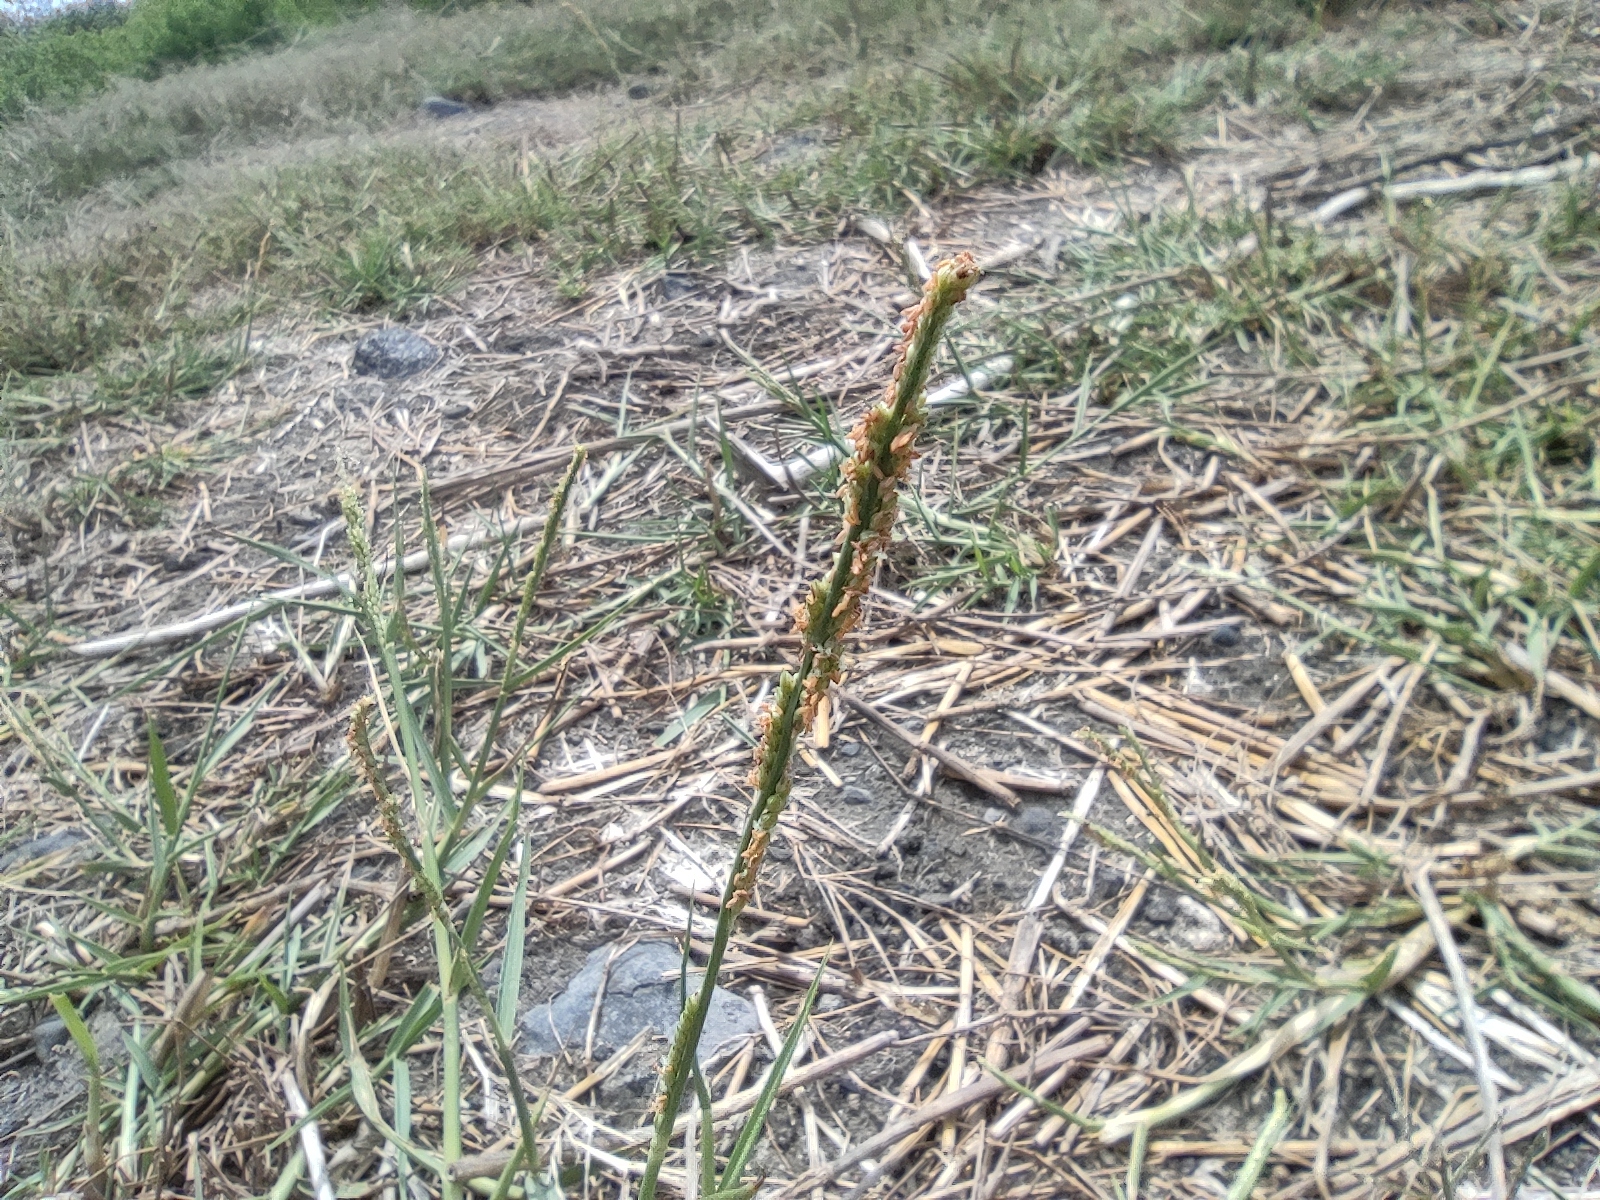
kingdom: Plantae
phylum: Tracheophyta
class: Liliopsida
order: Poales
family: Poaceae
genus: Setaria
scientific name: Setaria geminata
